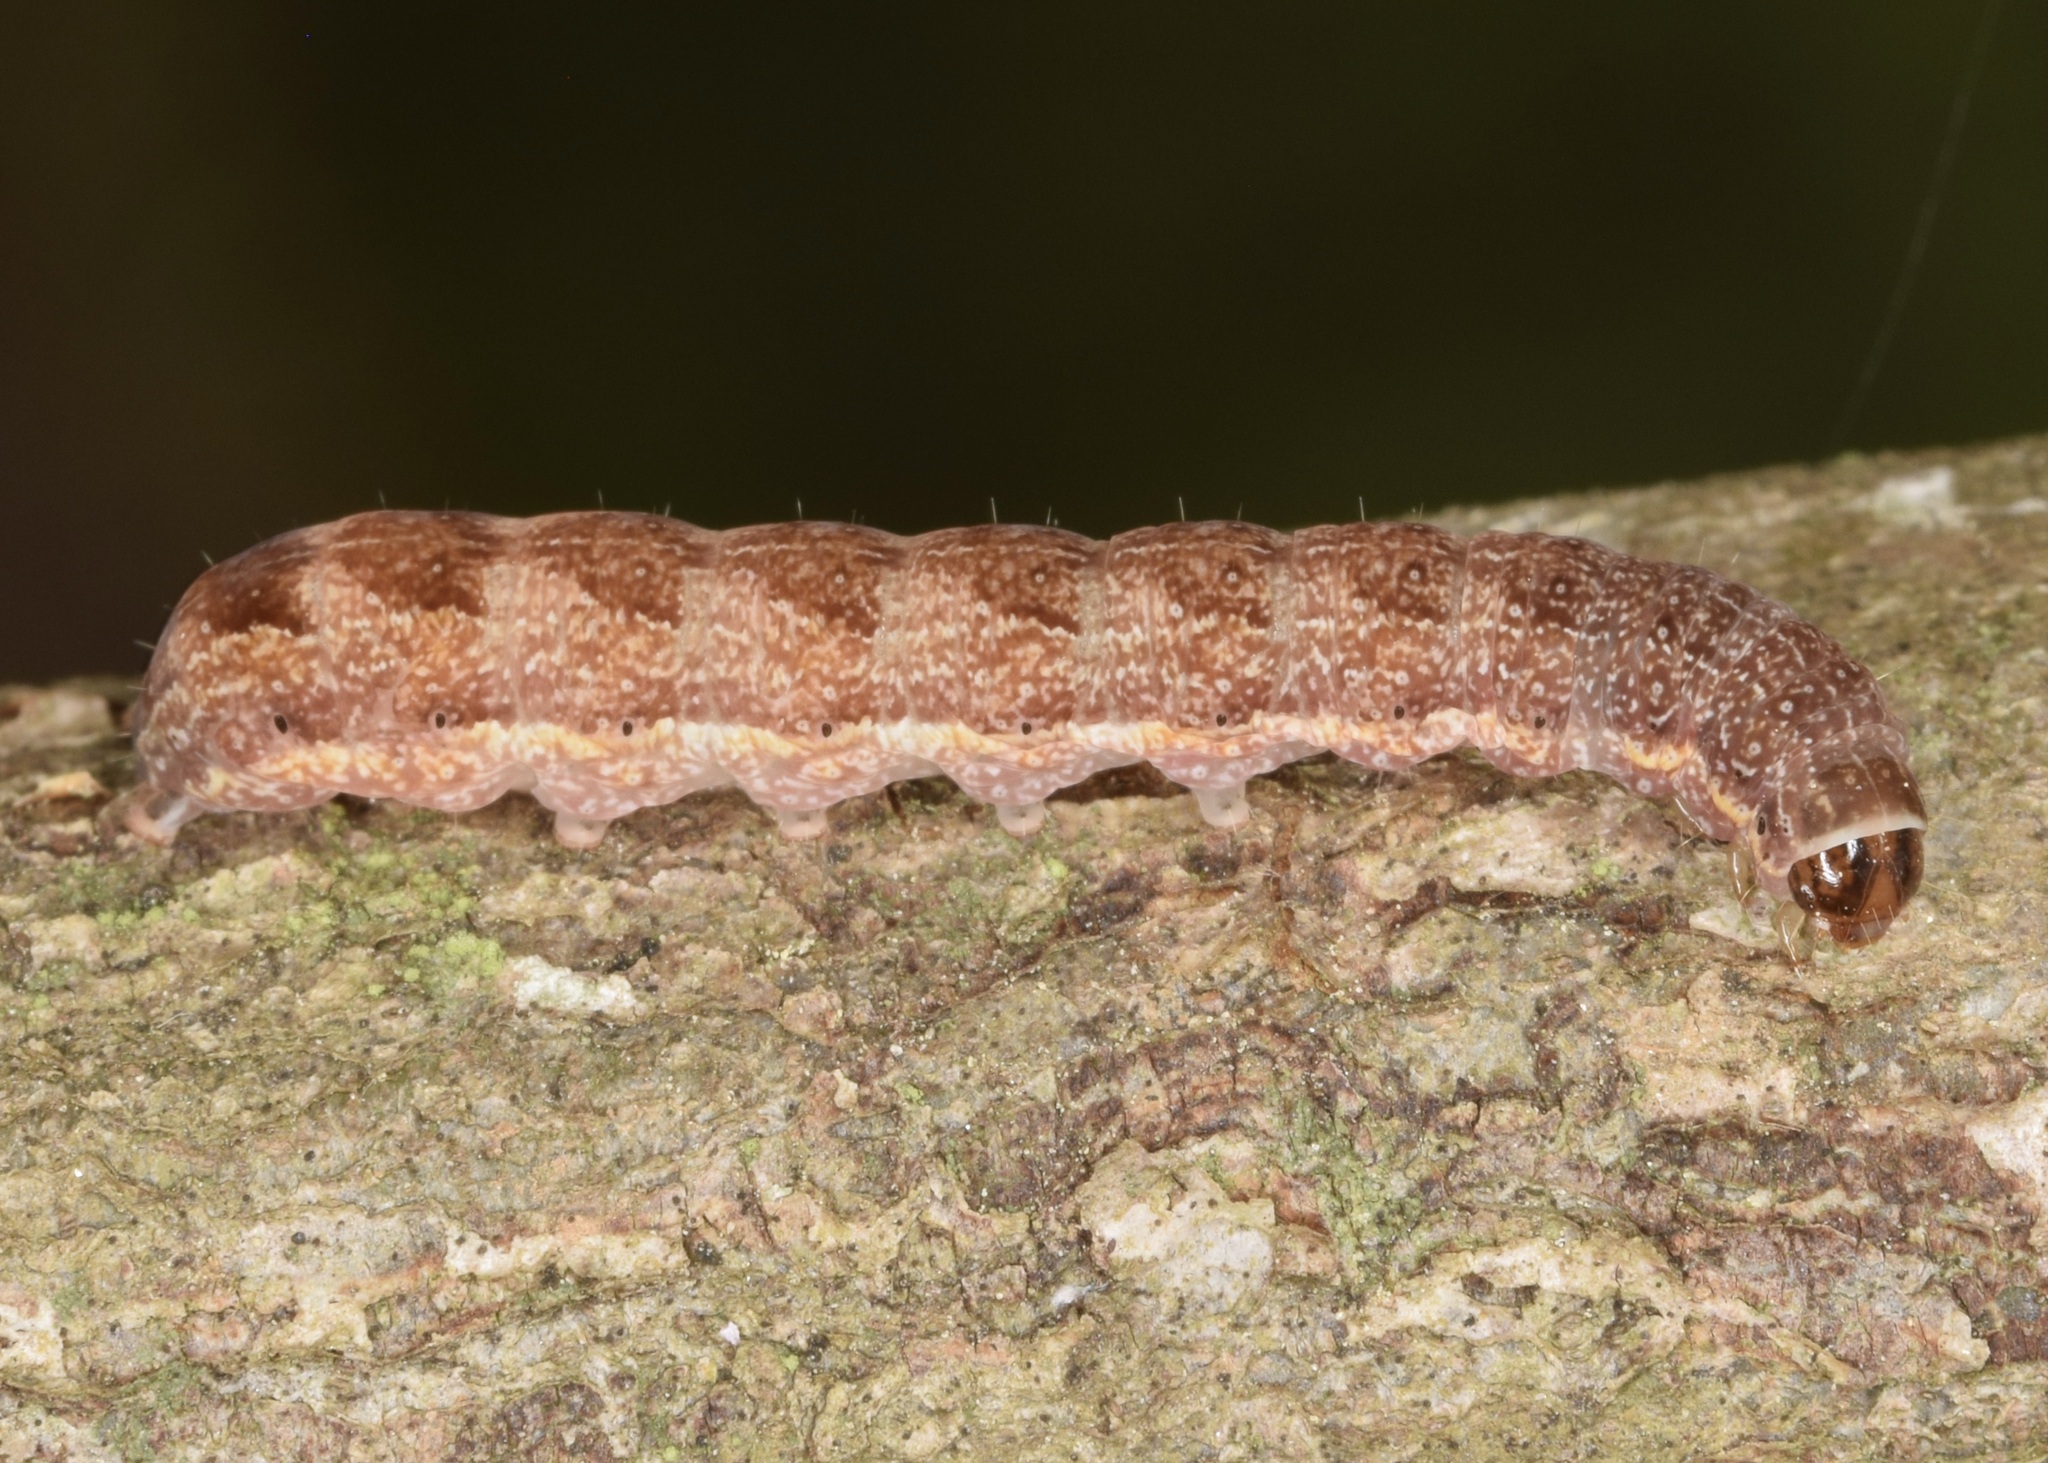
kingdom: Animalia
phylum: Arthropoda
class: Insecta
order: Lepidoptera
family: Noctuidae
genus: Agrochola
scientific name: Agrochola bicolorago
